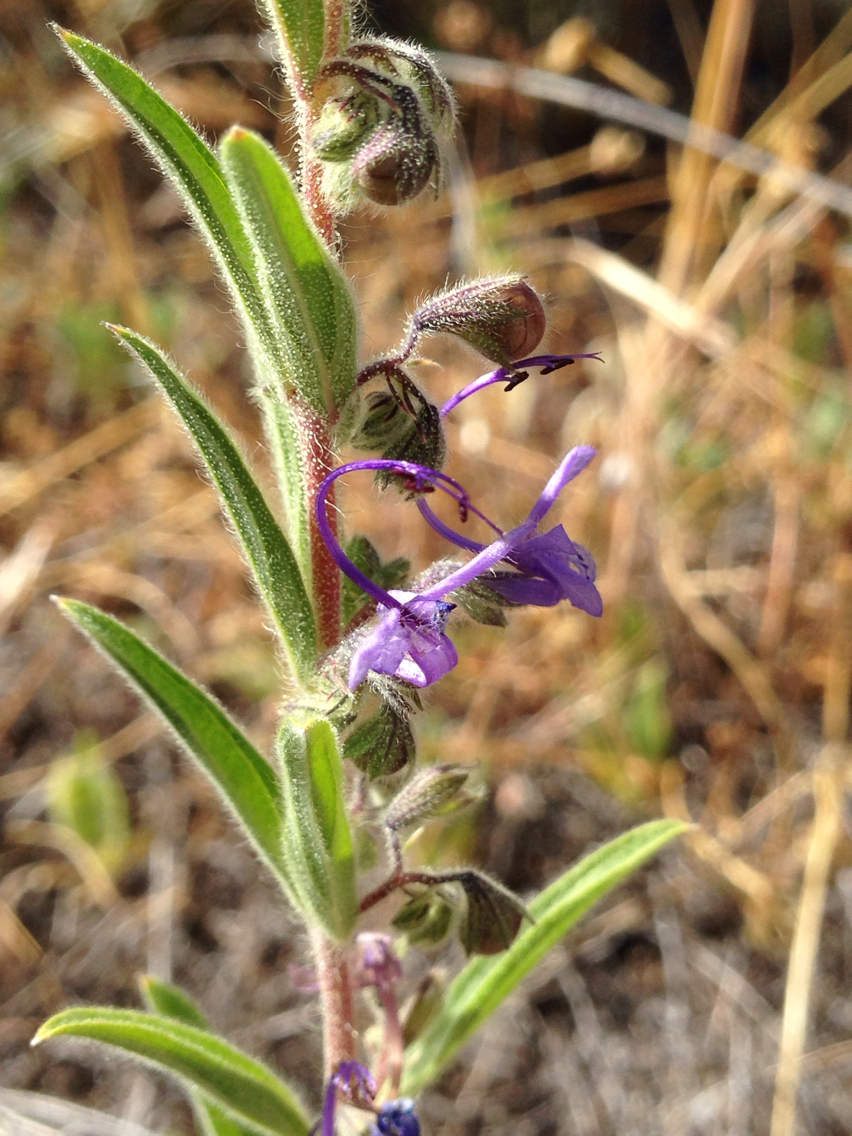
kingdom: Plantae
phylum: Tracheophyta
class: Magnoliopsida
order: Lamiales
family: Lamiaceae
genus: Trichostema
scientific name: Trichostema lanceolatum
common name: Vinegar-weed
